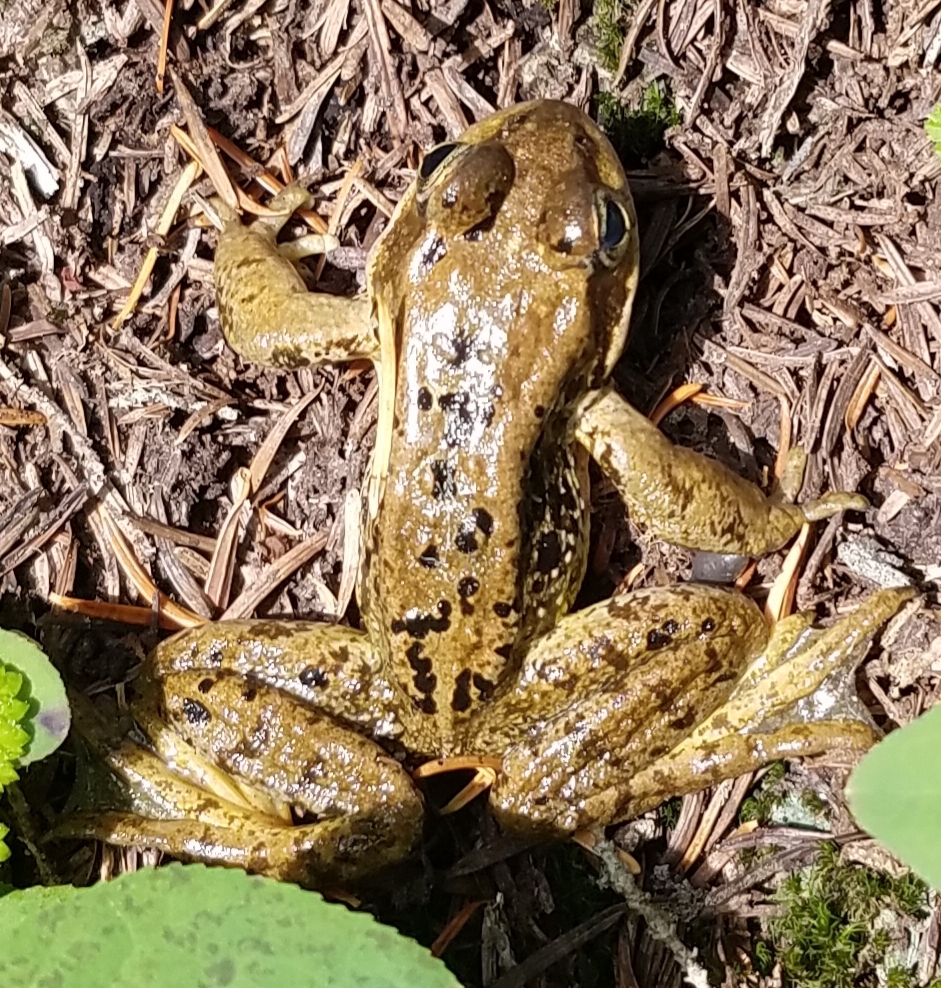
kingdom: Animalia
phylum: Chordata
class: Amphibia
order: Anura
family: Ranidae
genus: Rana
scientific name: Rana cascadae
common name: Cascades frog
